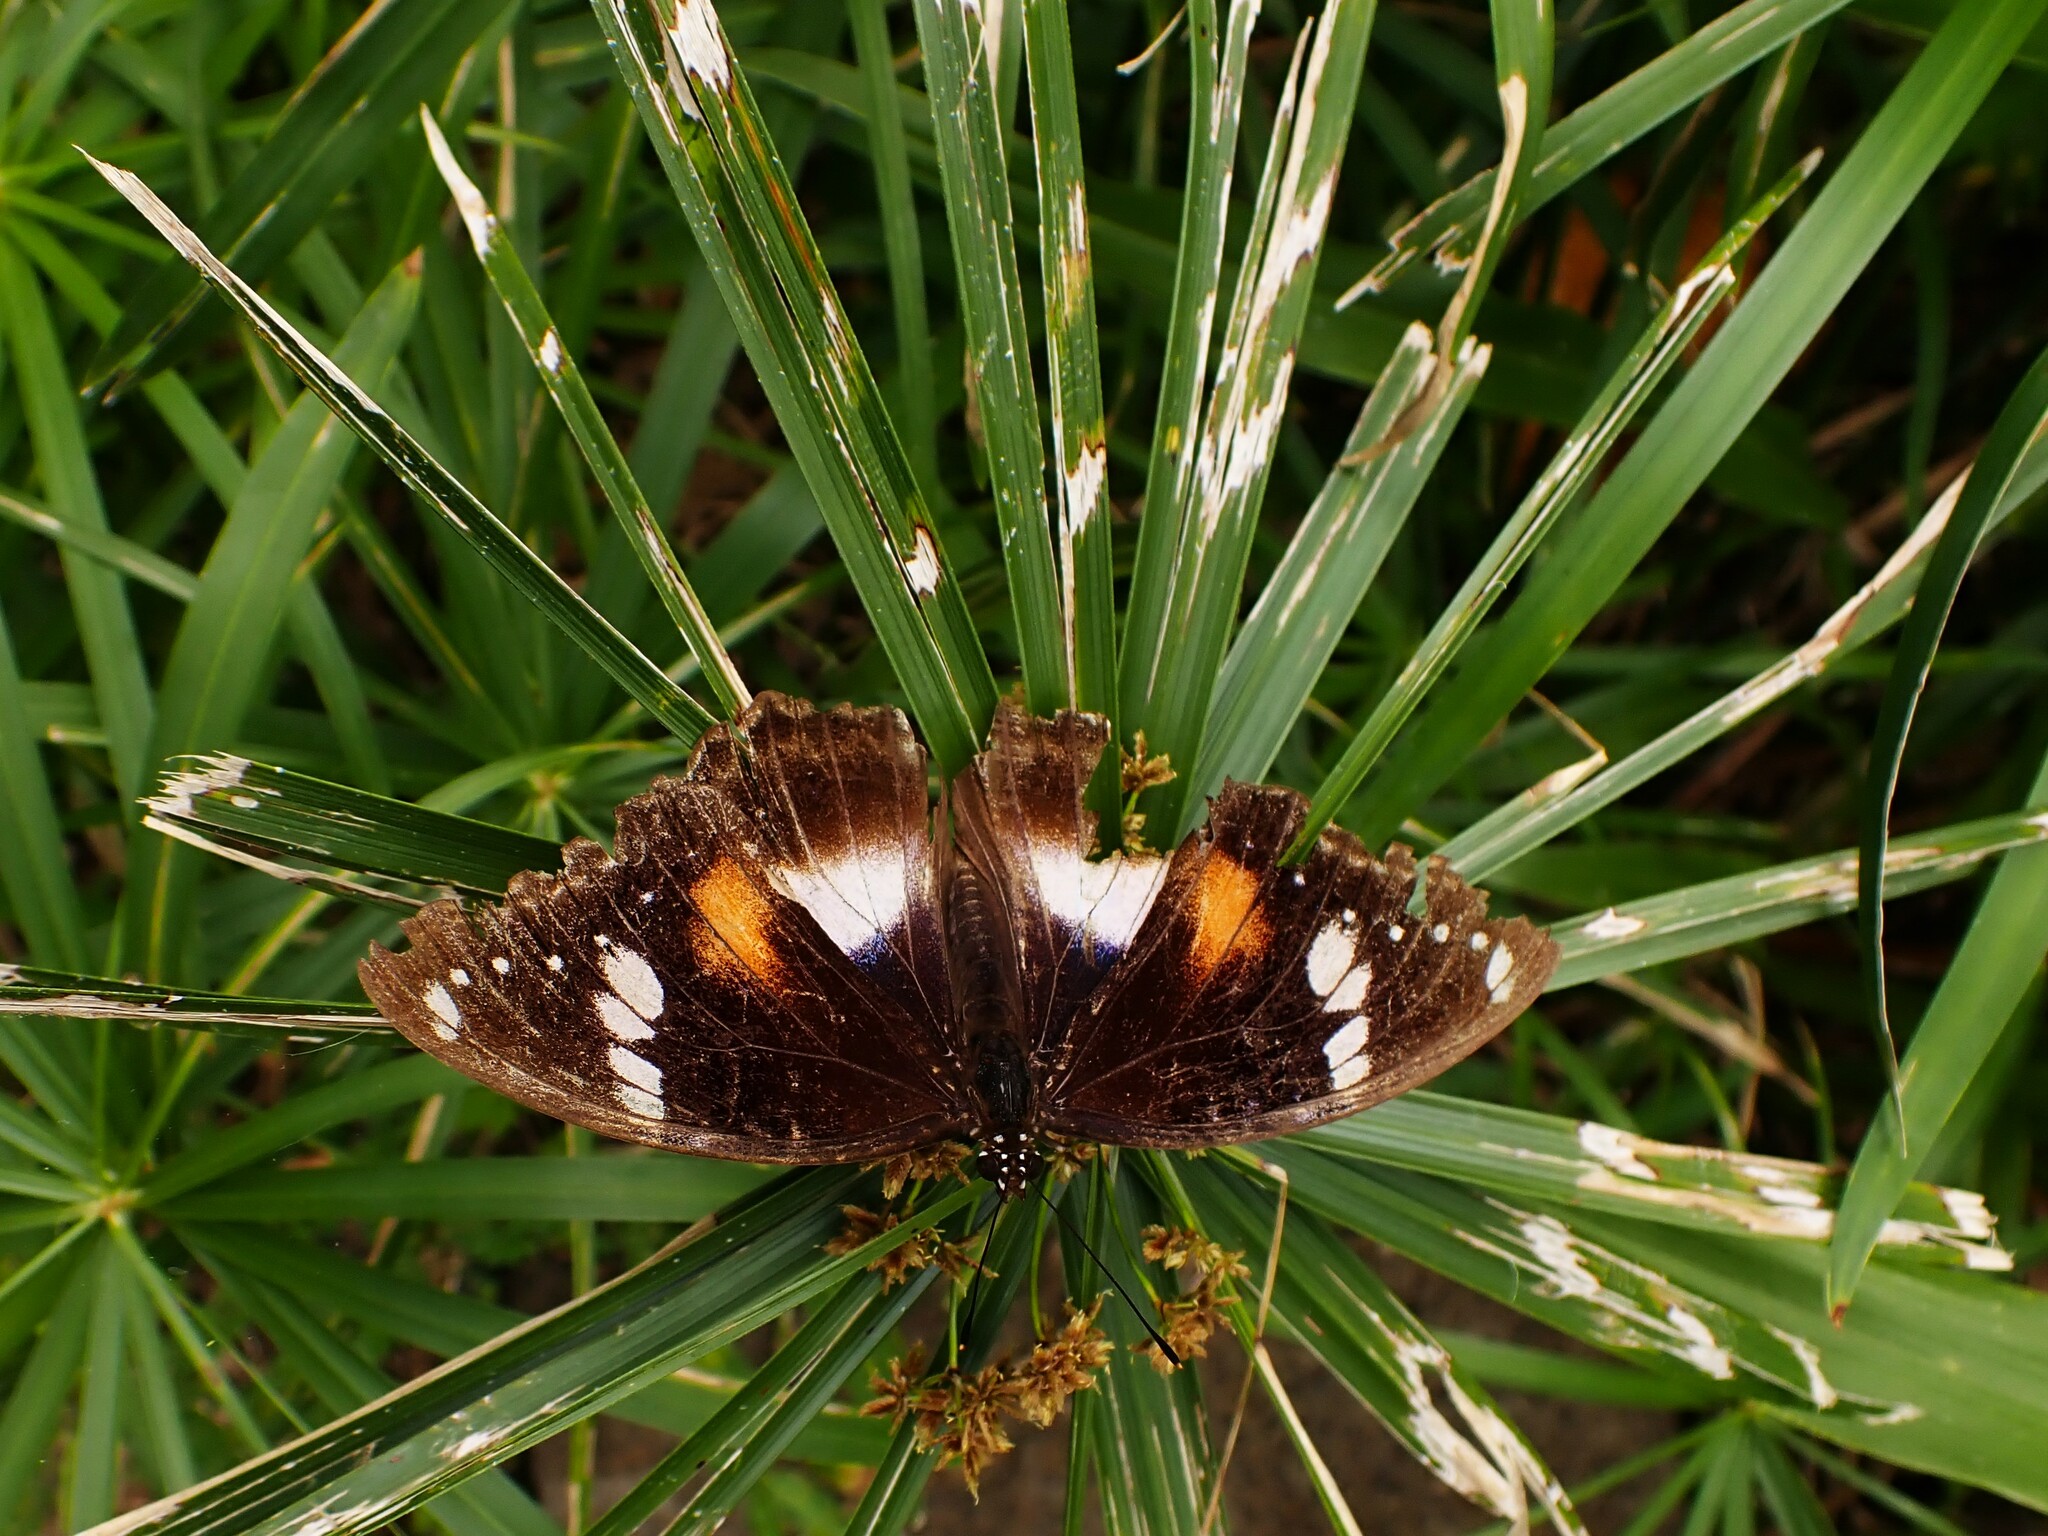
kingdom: Animalia
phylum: Arthropoda
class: Insecta
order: Lepidoptera
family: Nymphalidae
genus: Hypolimnas
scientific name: Hypolimnas bolina
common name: Great eggfly
